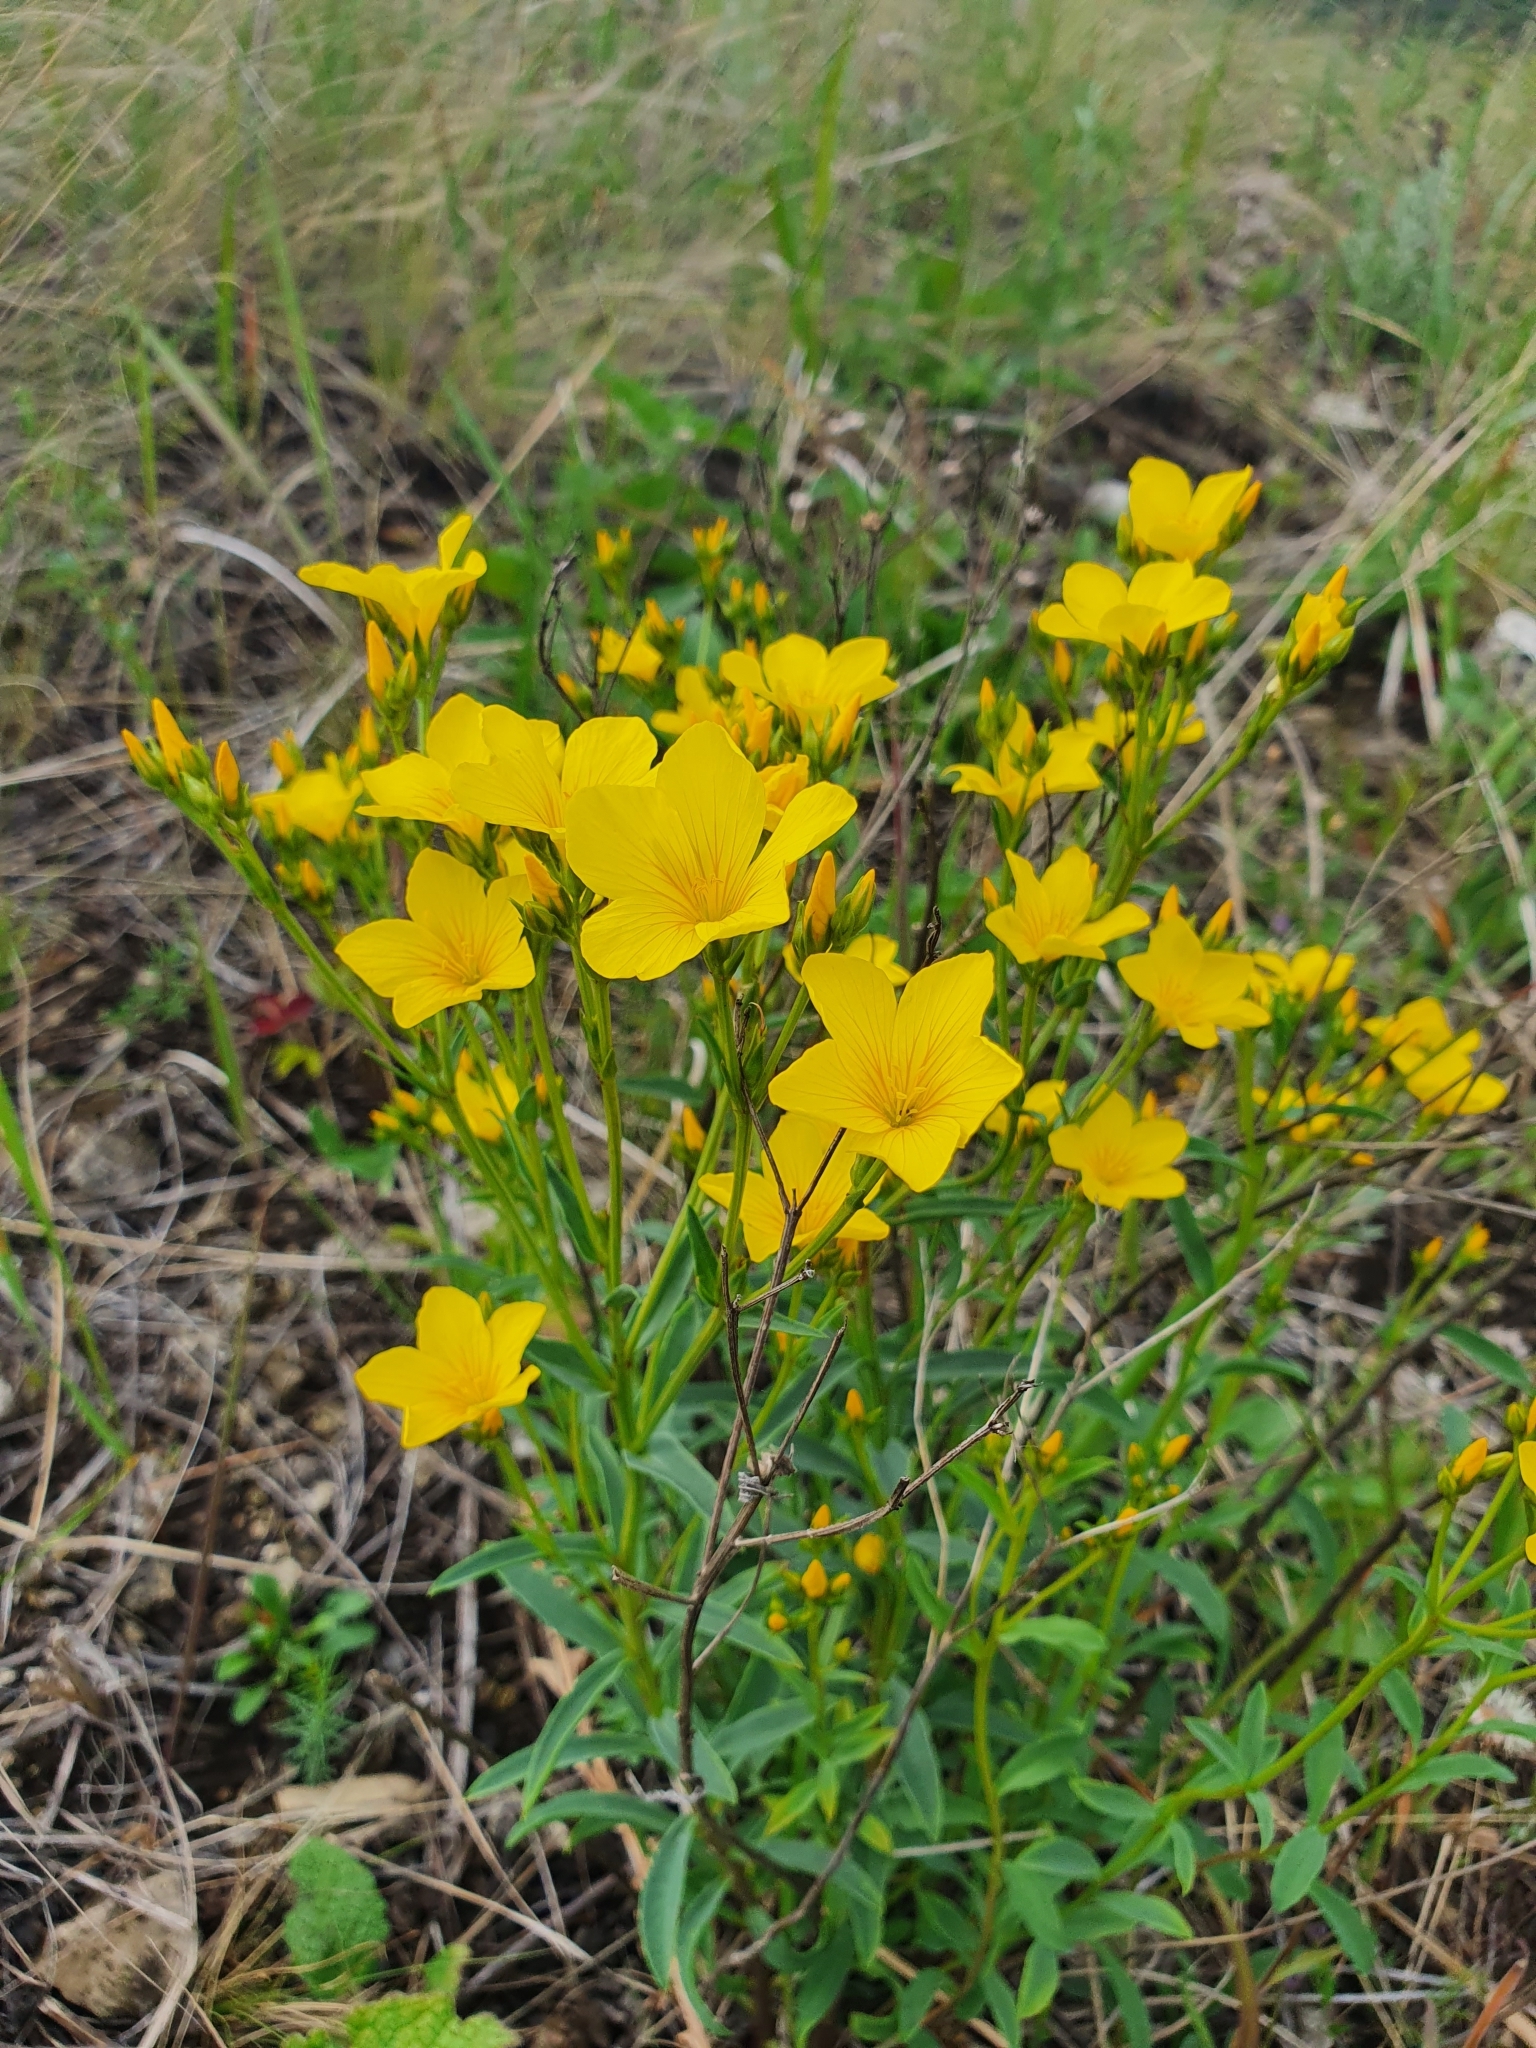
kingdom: Plantae
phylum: Tracheophyta
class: Magnoliopsida
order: Malpighiales
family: Linaceae
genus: Linum
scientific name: Linum ucranicum
